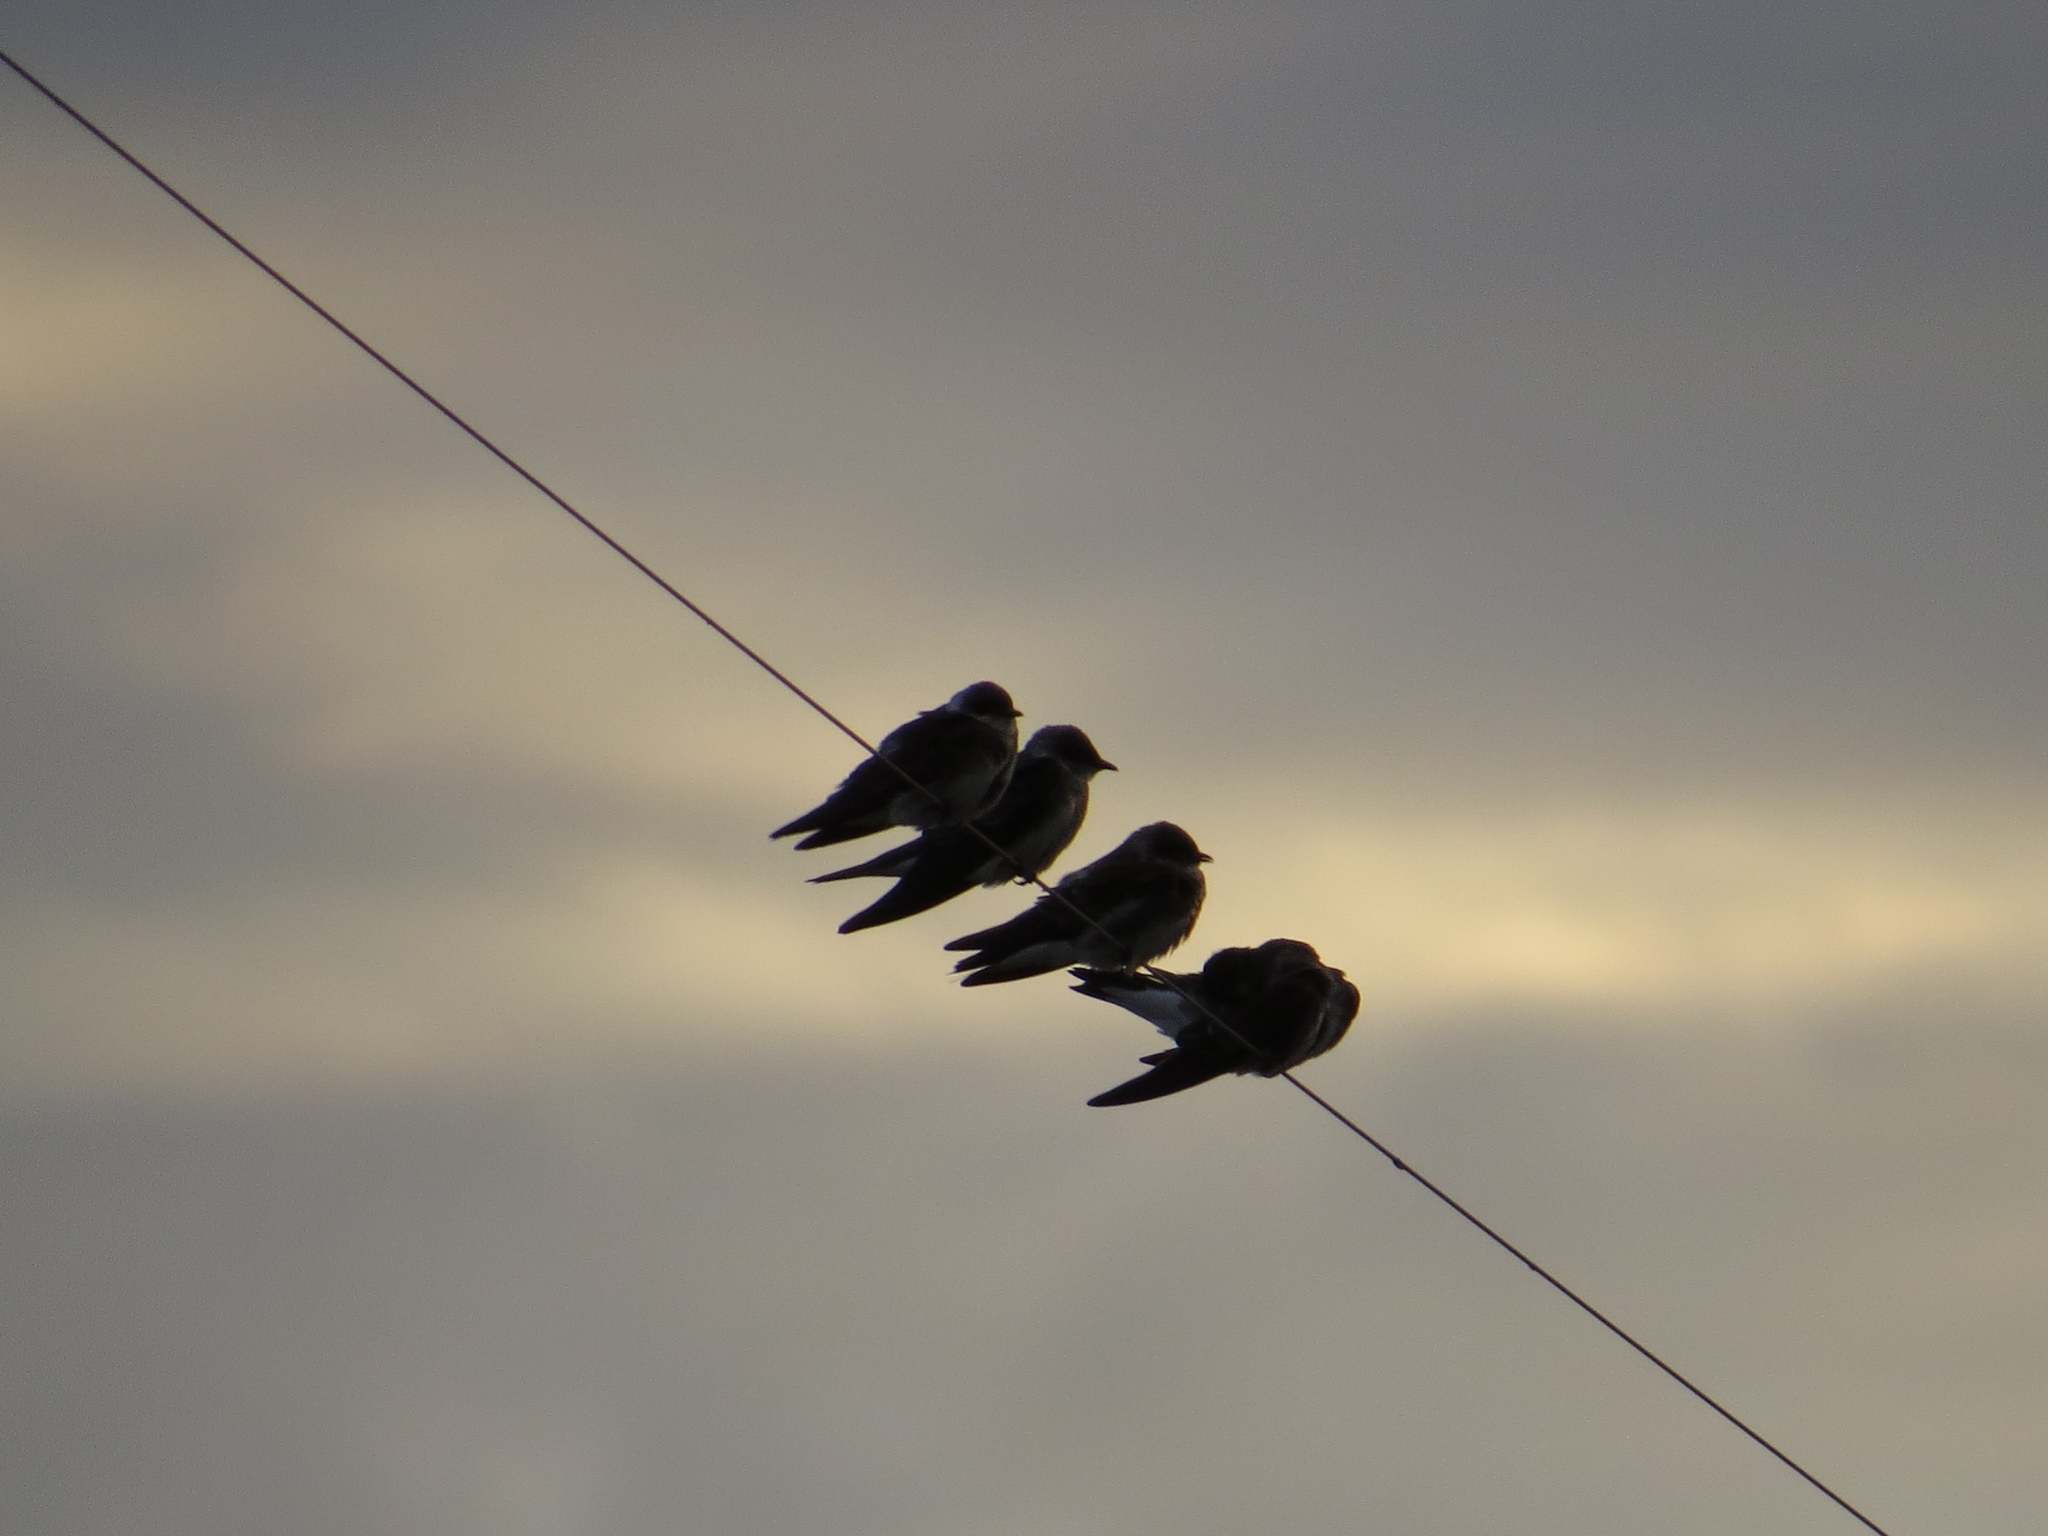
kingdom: Animalia
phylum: Chordata
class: Aves
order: Passeriformes
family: Hirundinidae
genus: Progne
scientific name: Progne tapera
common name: Brown-chested martin
